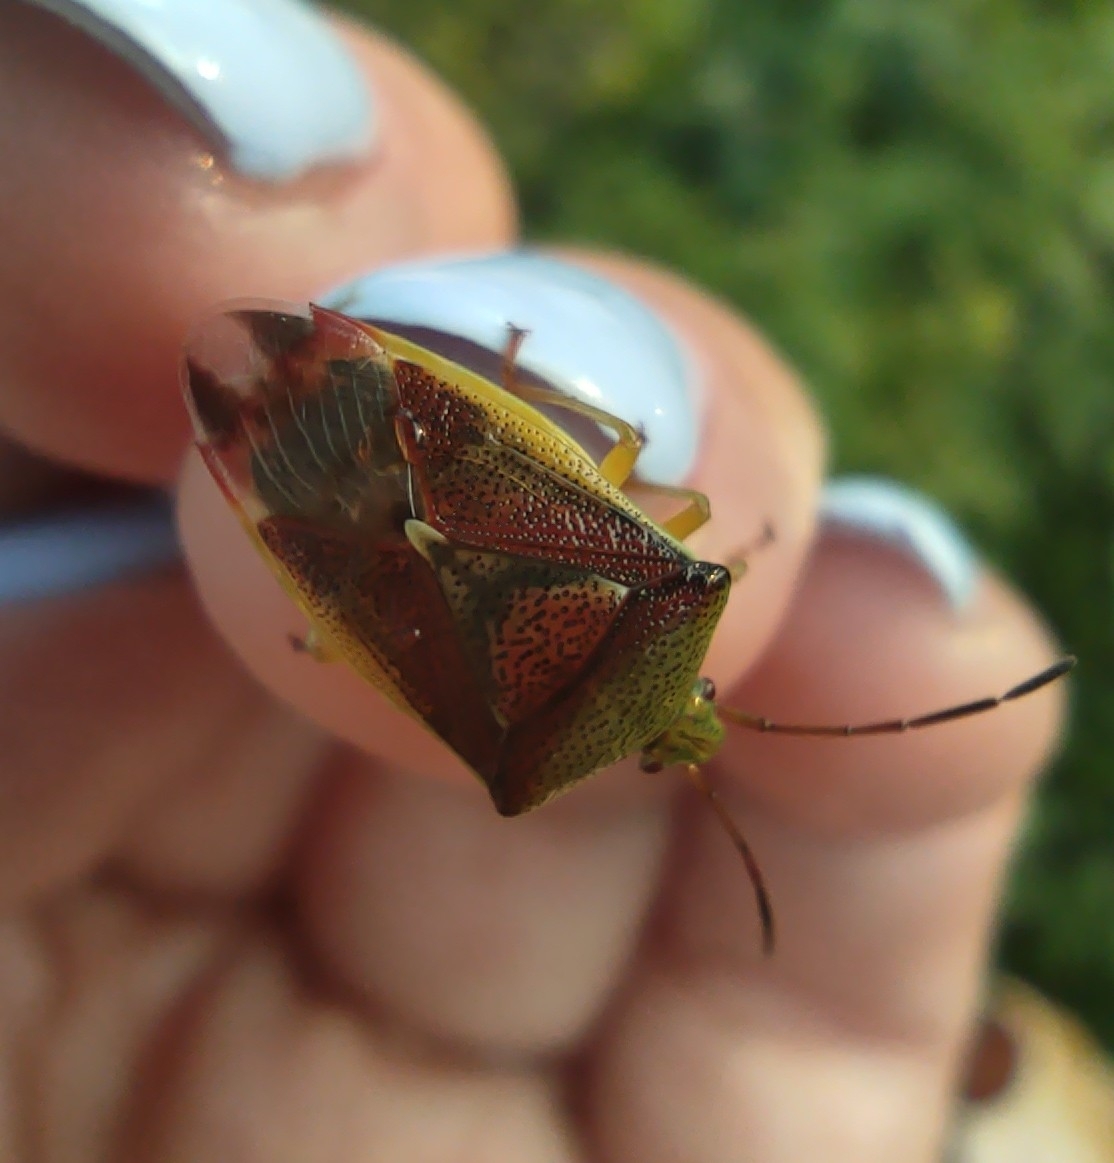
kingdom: Animalia
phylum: Arthropoda
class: Insecta
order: Hemiptera
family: Acanthosomatidae
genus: Elasmostethus
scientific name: Elasmostethus
